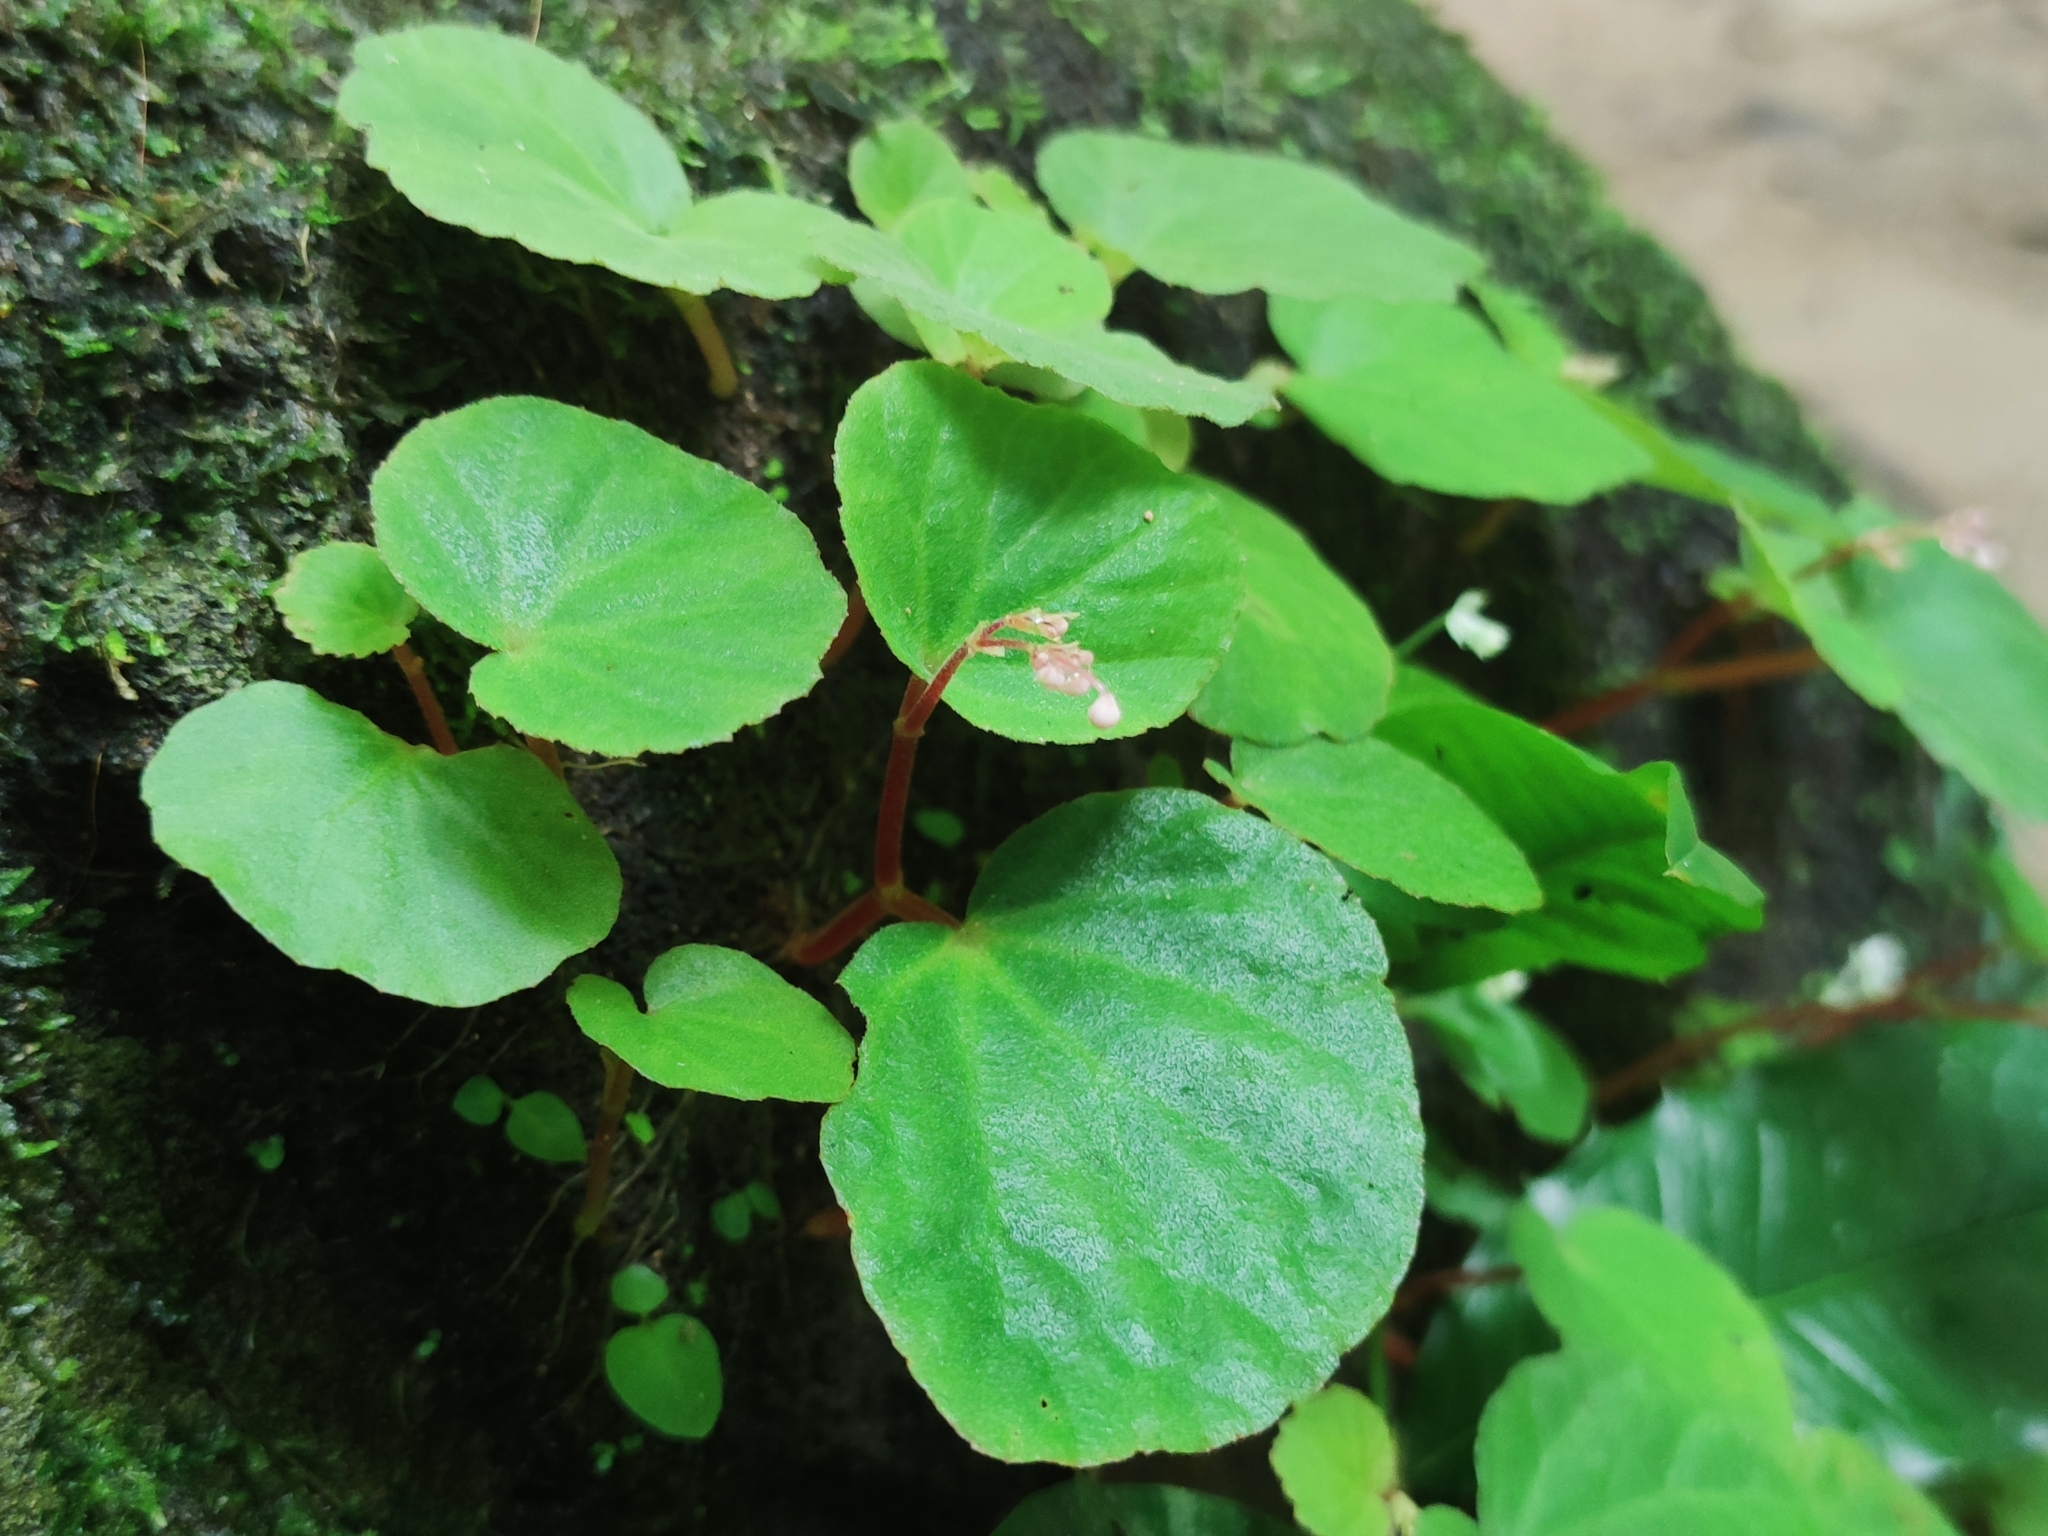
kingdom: Plantae
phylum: Tracheophyta
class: Magnoliopsida
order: Cucurbitales
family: Begoniaceae
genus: Begonia
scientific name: Begonia martabanica
